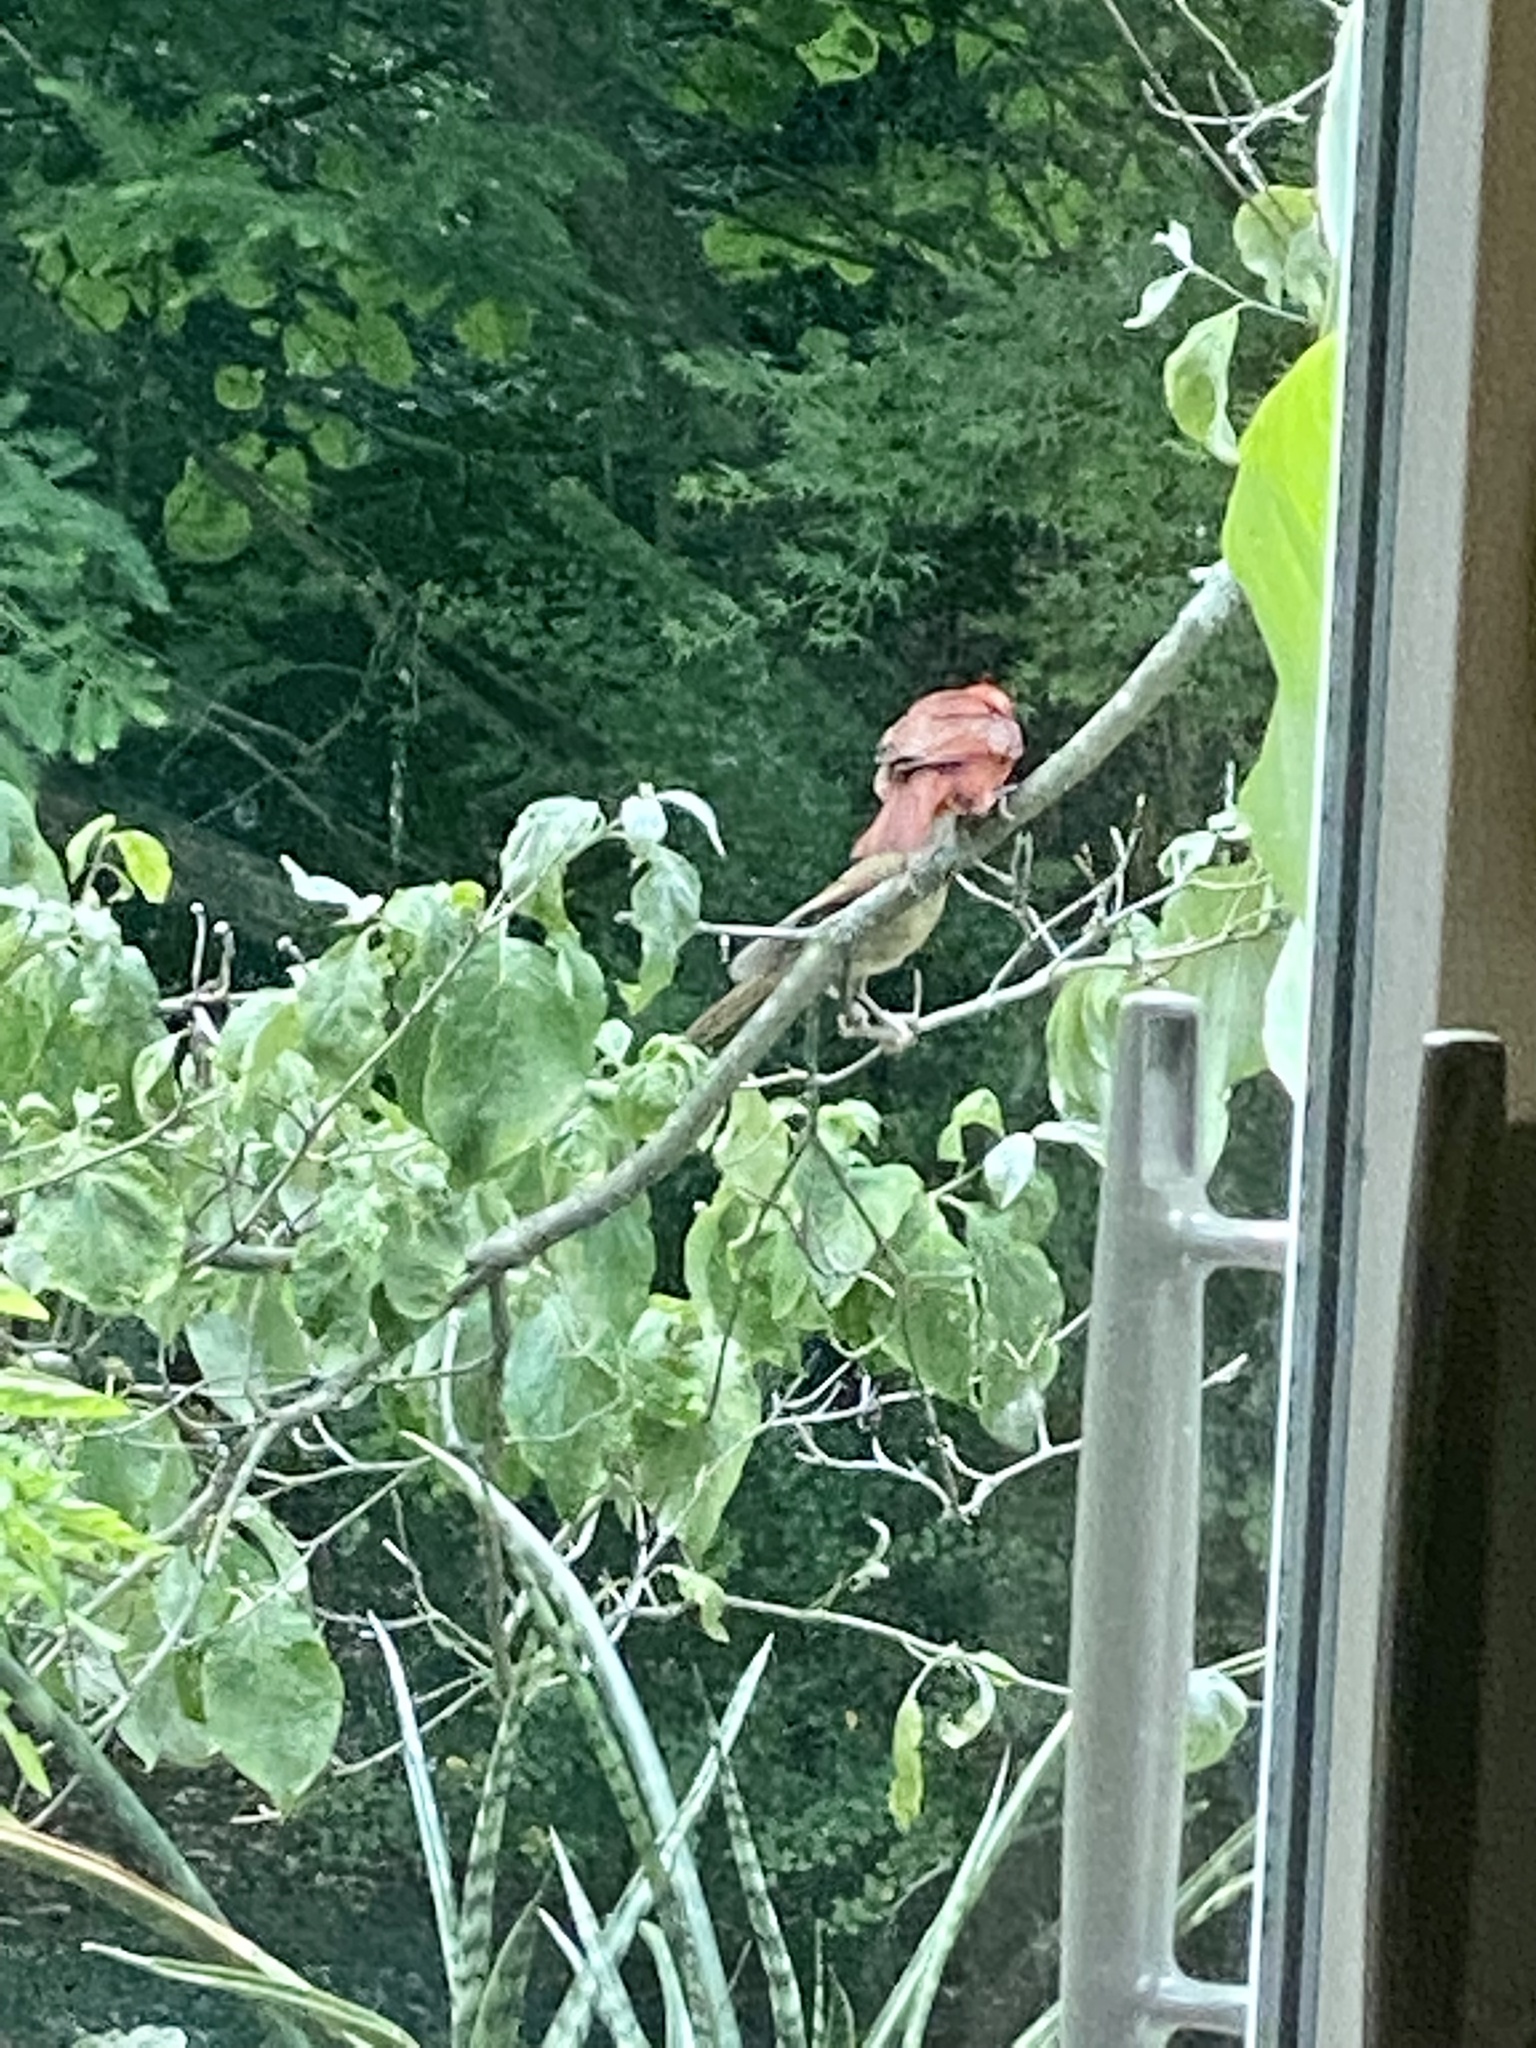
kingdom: Animalia
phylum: Chordata
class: Aves
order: Passeriformes
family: Cardinalidae
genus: Cardinalis
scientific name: Cardinalis cardinalis
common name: Northern cardinal
